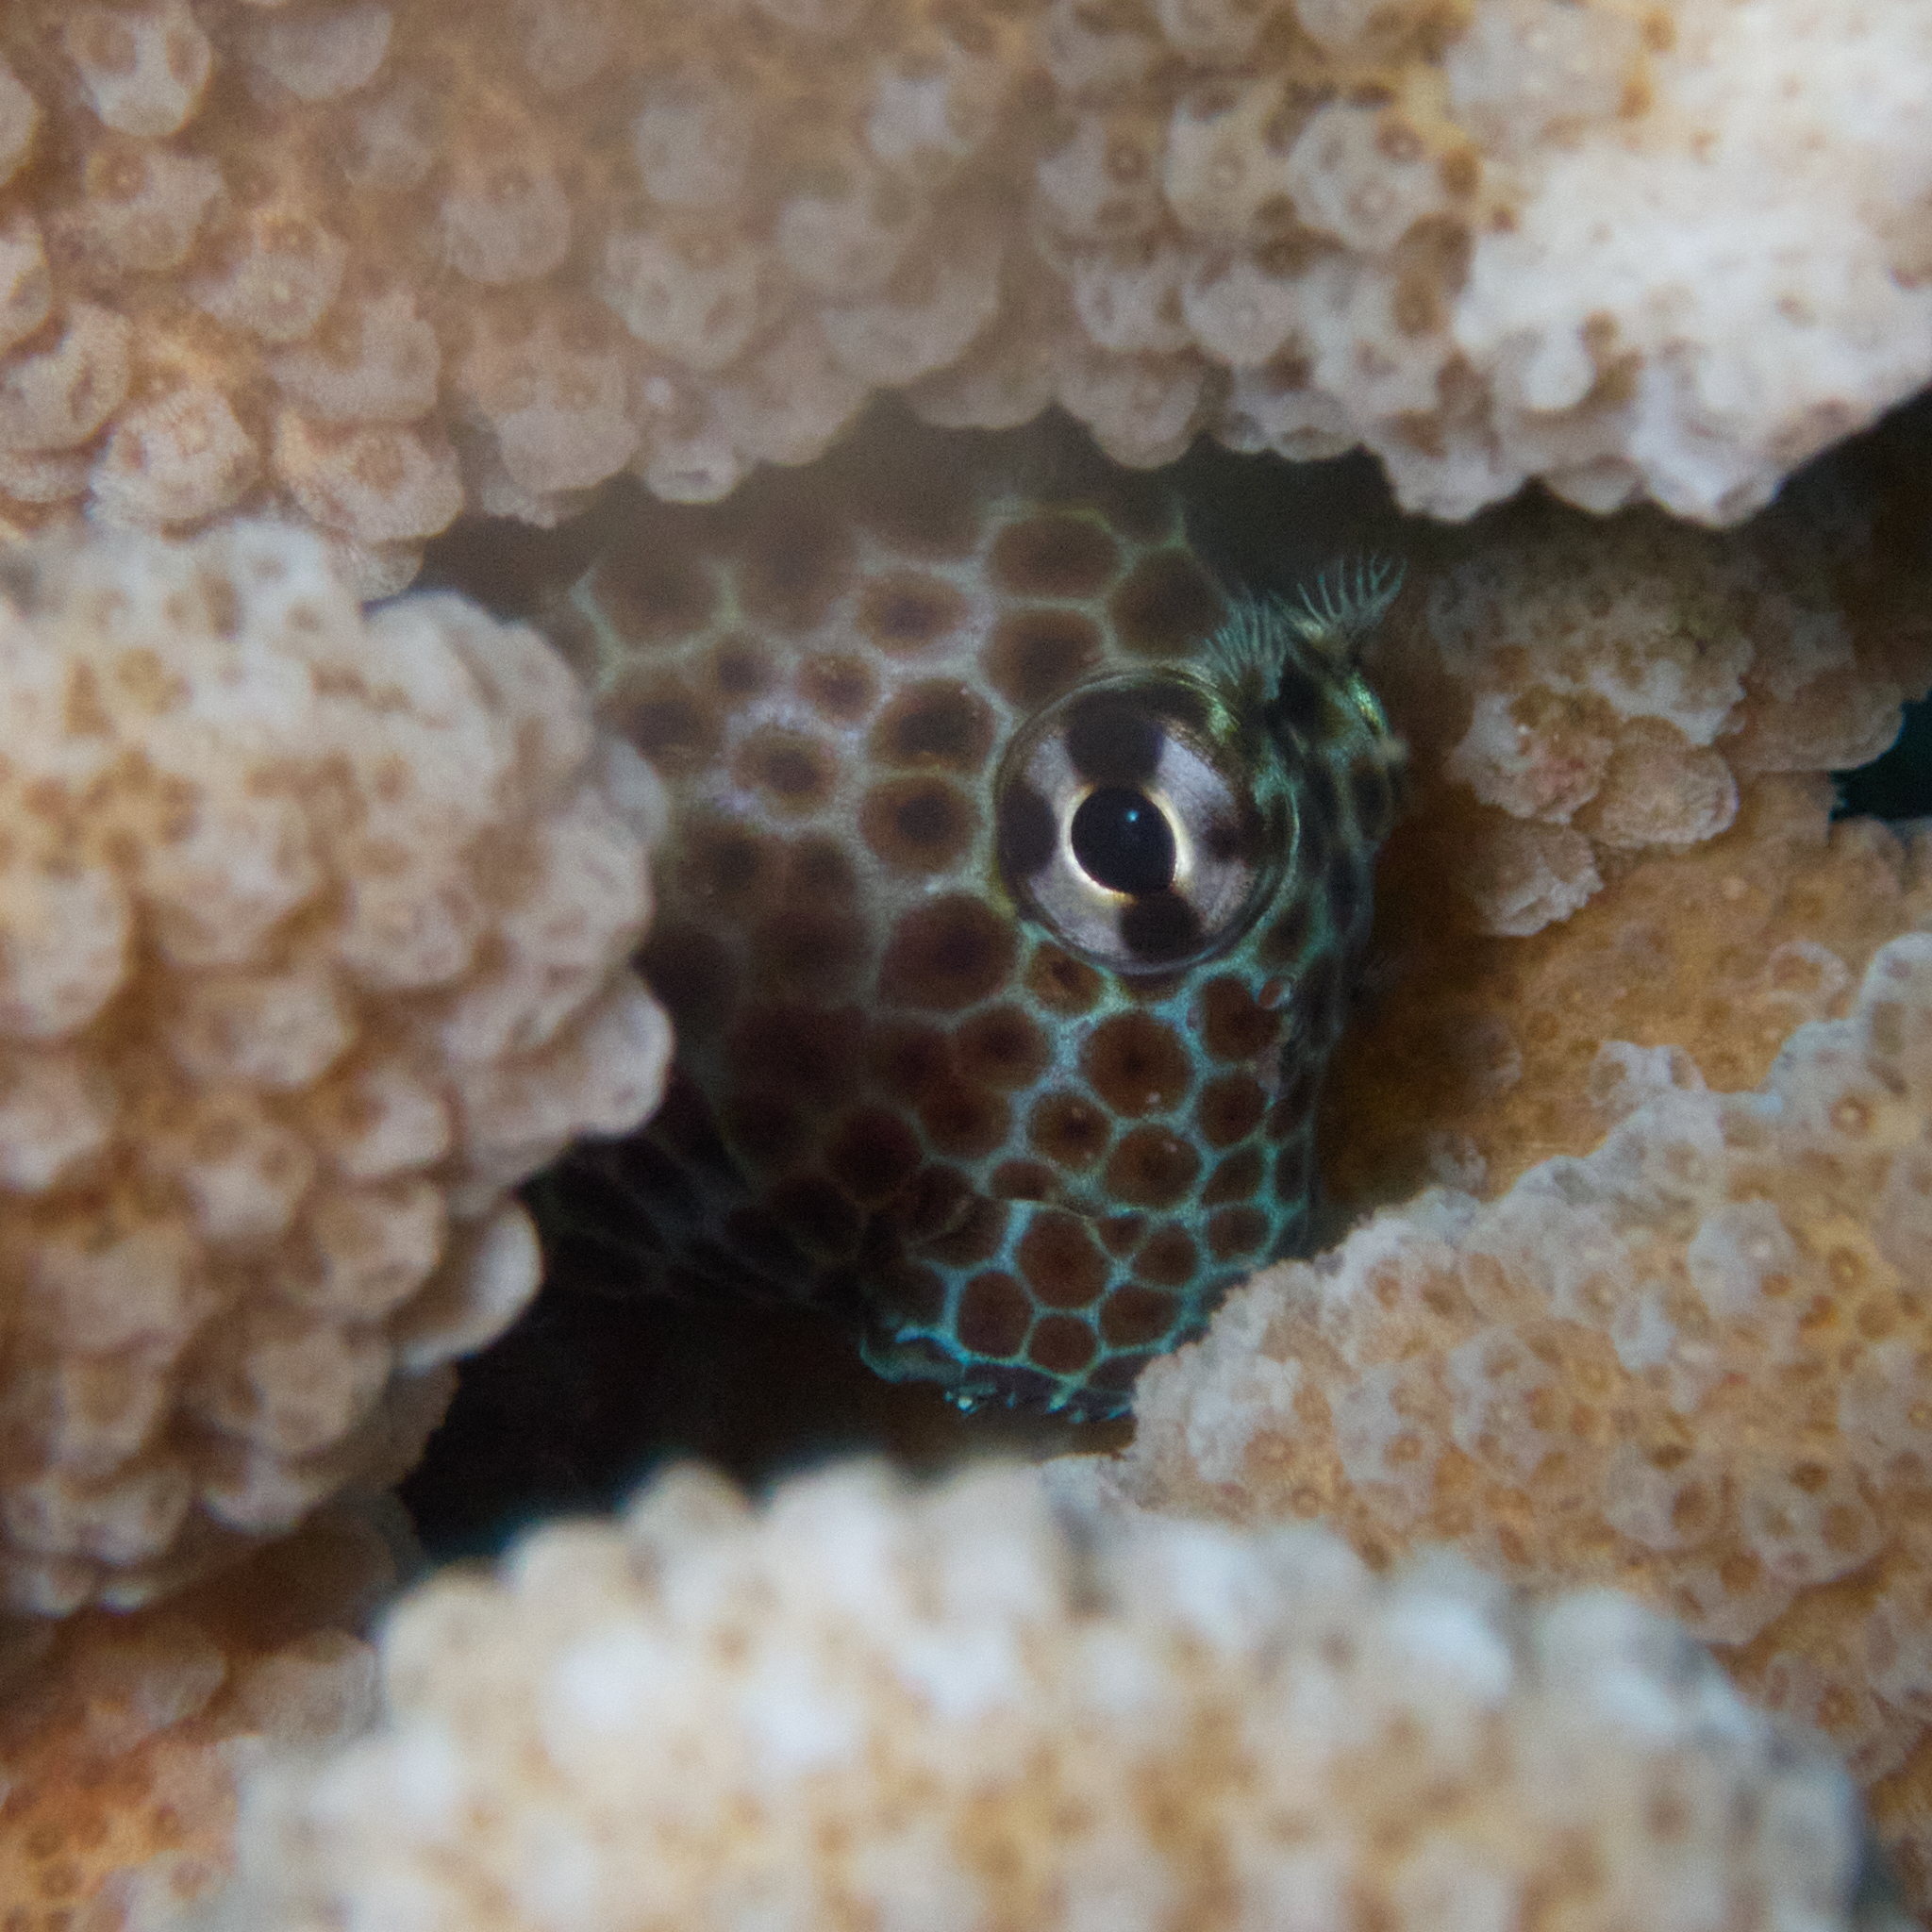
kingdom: Animalia
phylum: Chordata
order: Perciformes
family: Blenniidae
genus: Exallias
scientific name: Exallias brevis
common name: Leopard blenny
